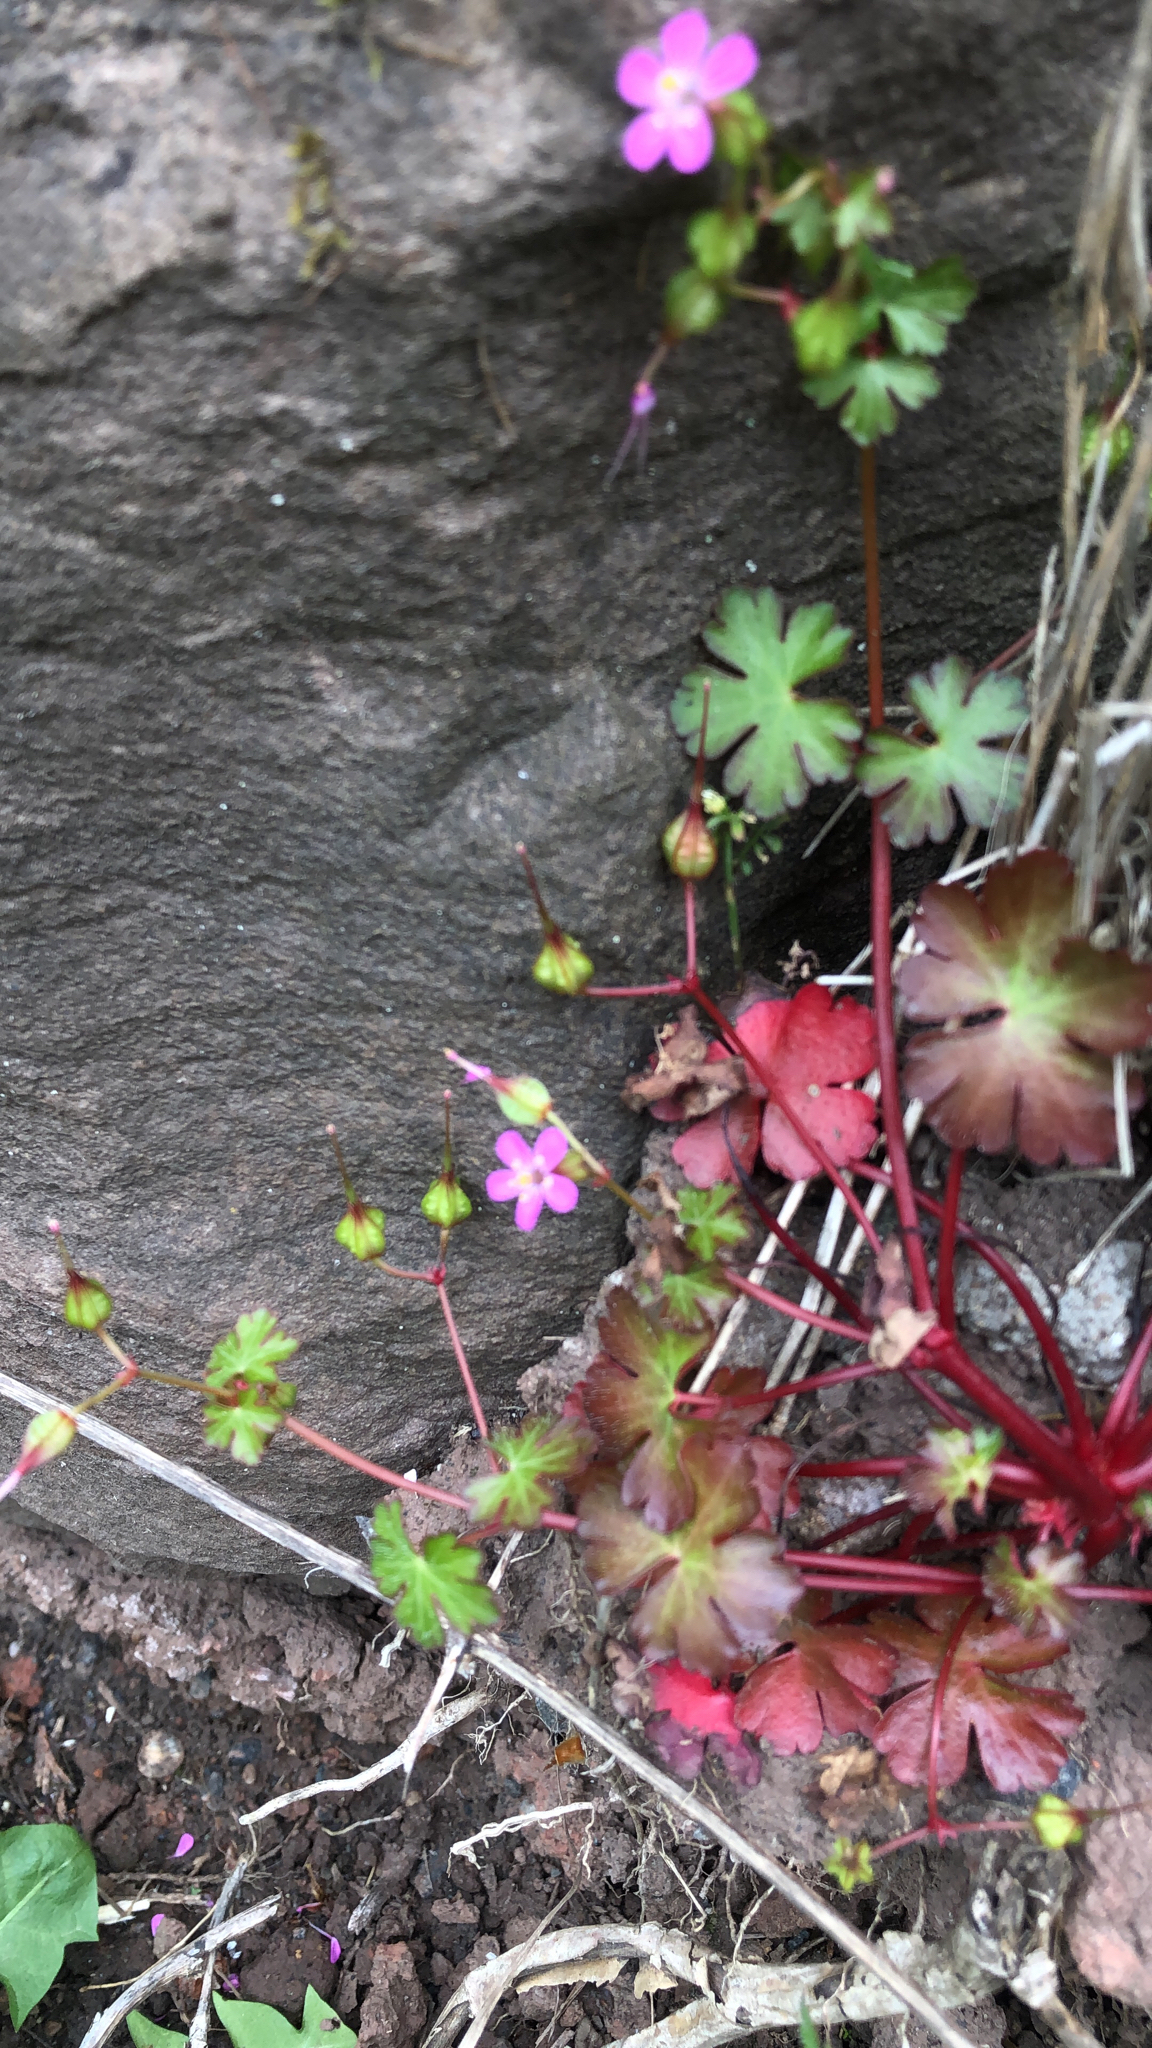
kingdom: Plantae
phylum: Tracheophyta
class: Magnoliopsida
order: Geraniales
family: Geraniaceae
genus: Geranium
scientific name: Geranium lucidum
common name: Shining crane's-bill
